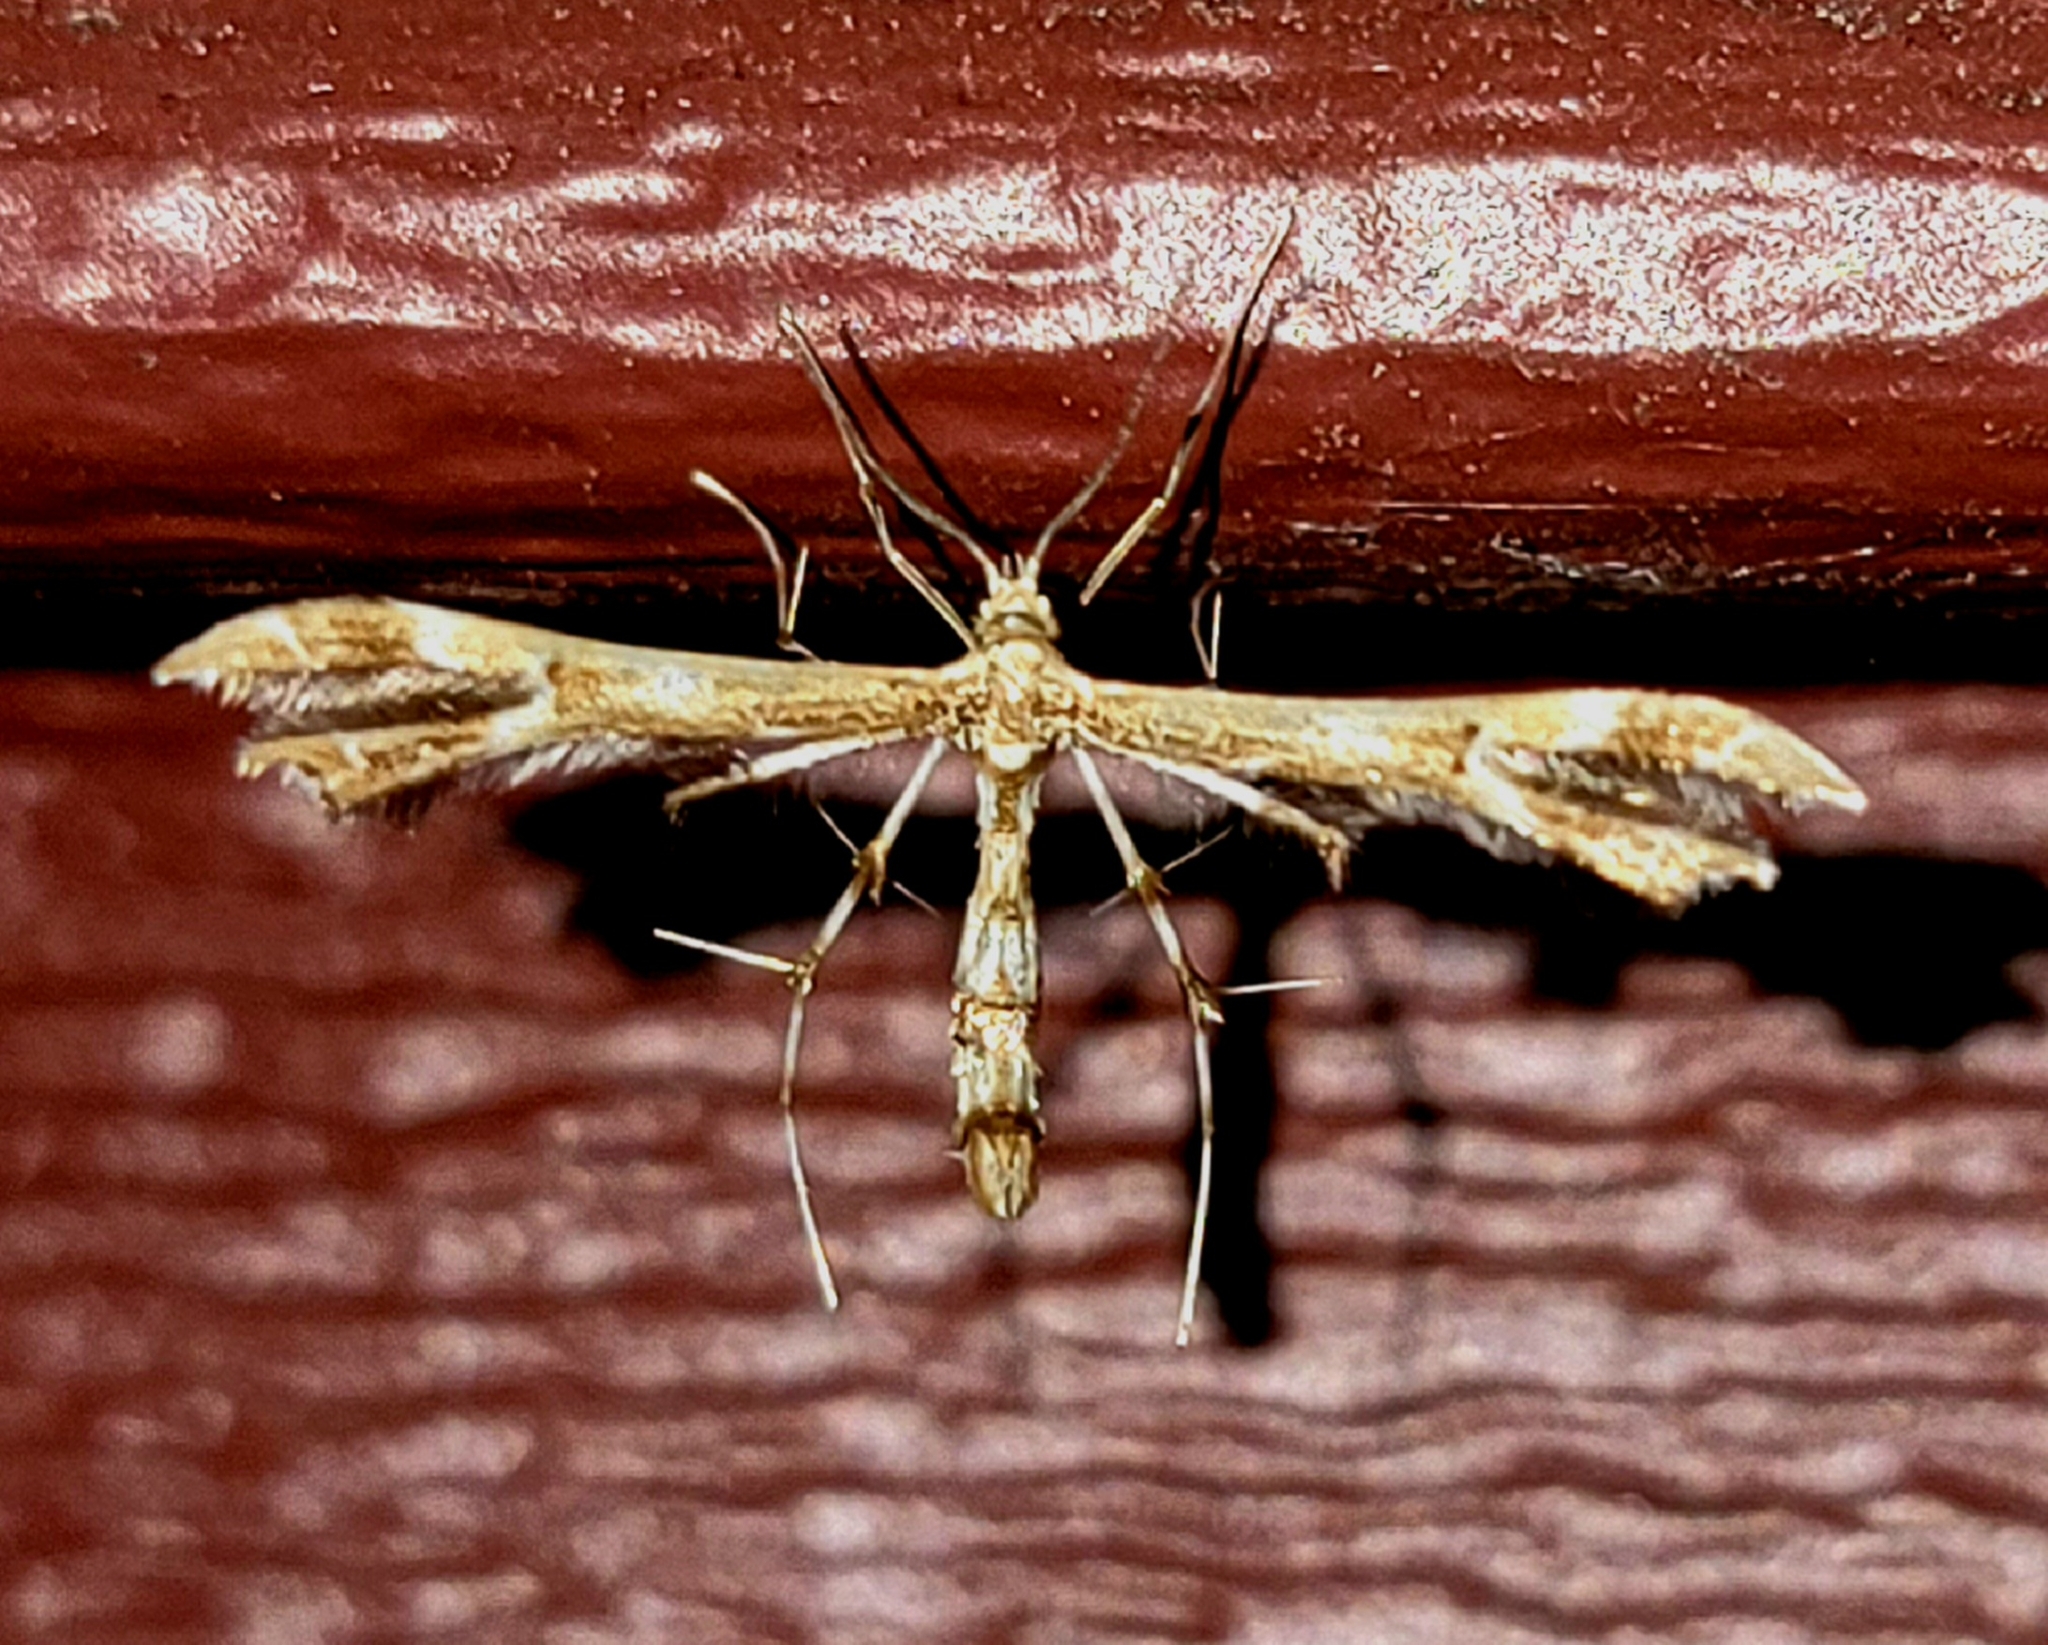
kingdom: Animalia
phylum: Arthropoda
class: Insecta
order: Lepidoptera
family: Pterophoridae
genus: Geina
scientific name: Geina
